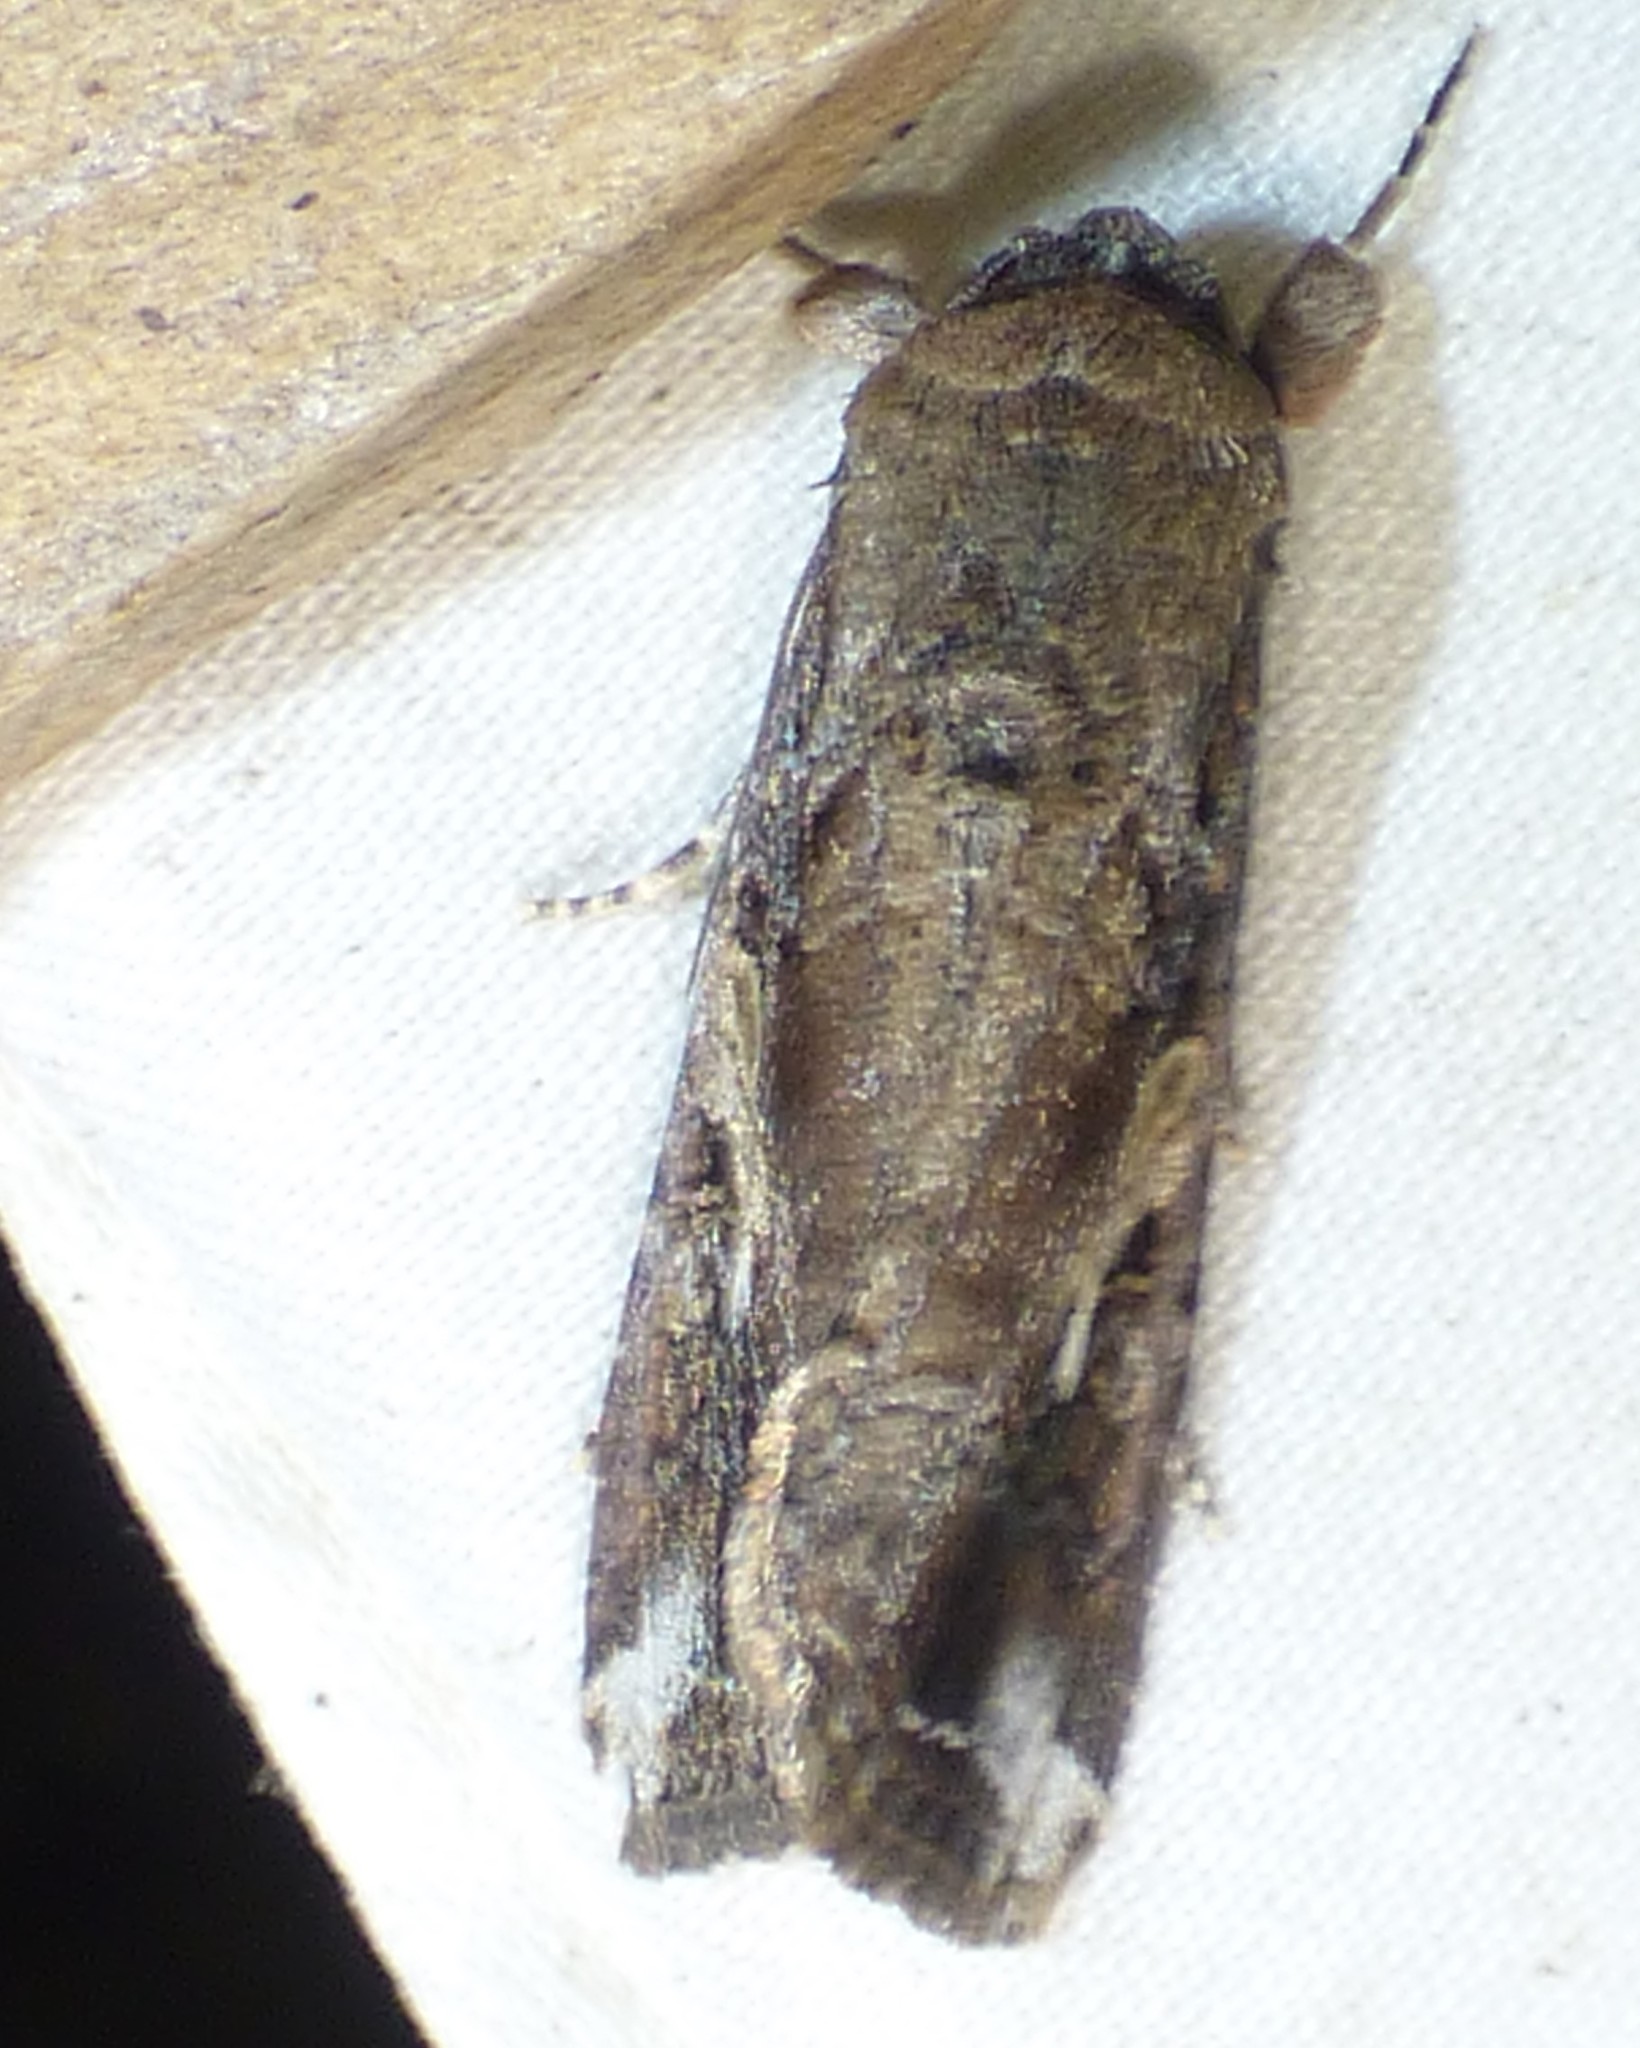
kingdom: Animalia
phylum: Arthropoda
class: Insecta
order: Lepidoptera
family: Noctuidae
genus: Spodoptera
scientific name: Spodoptera frugiperda
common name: Fall armyworm
